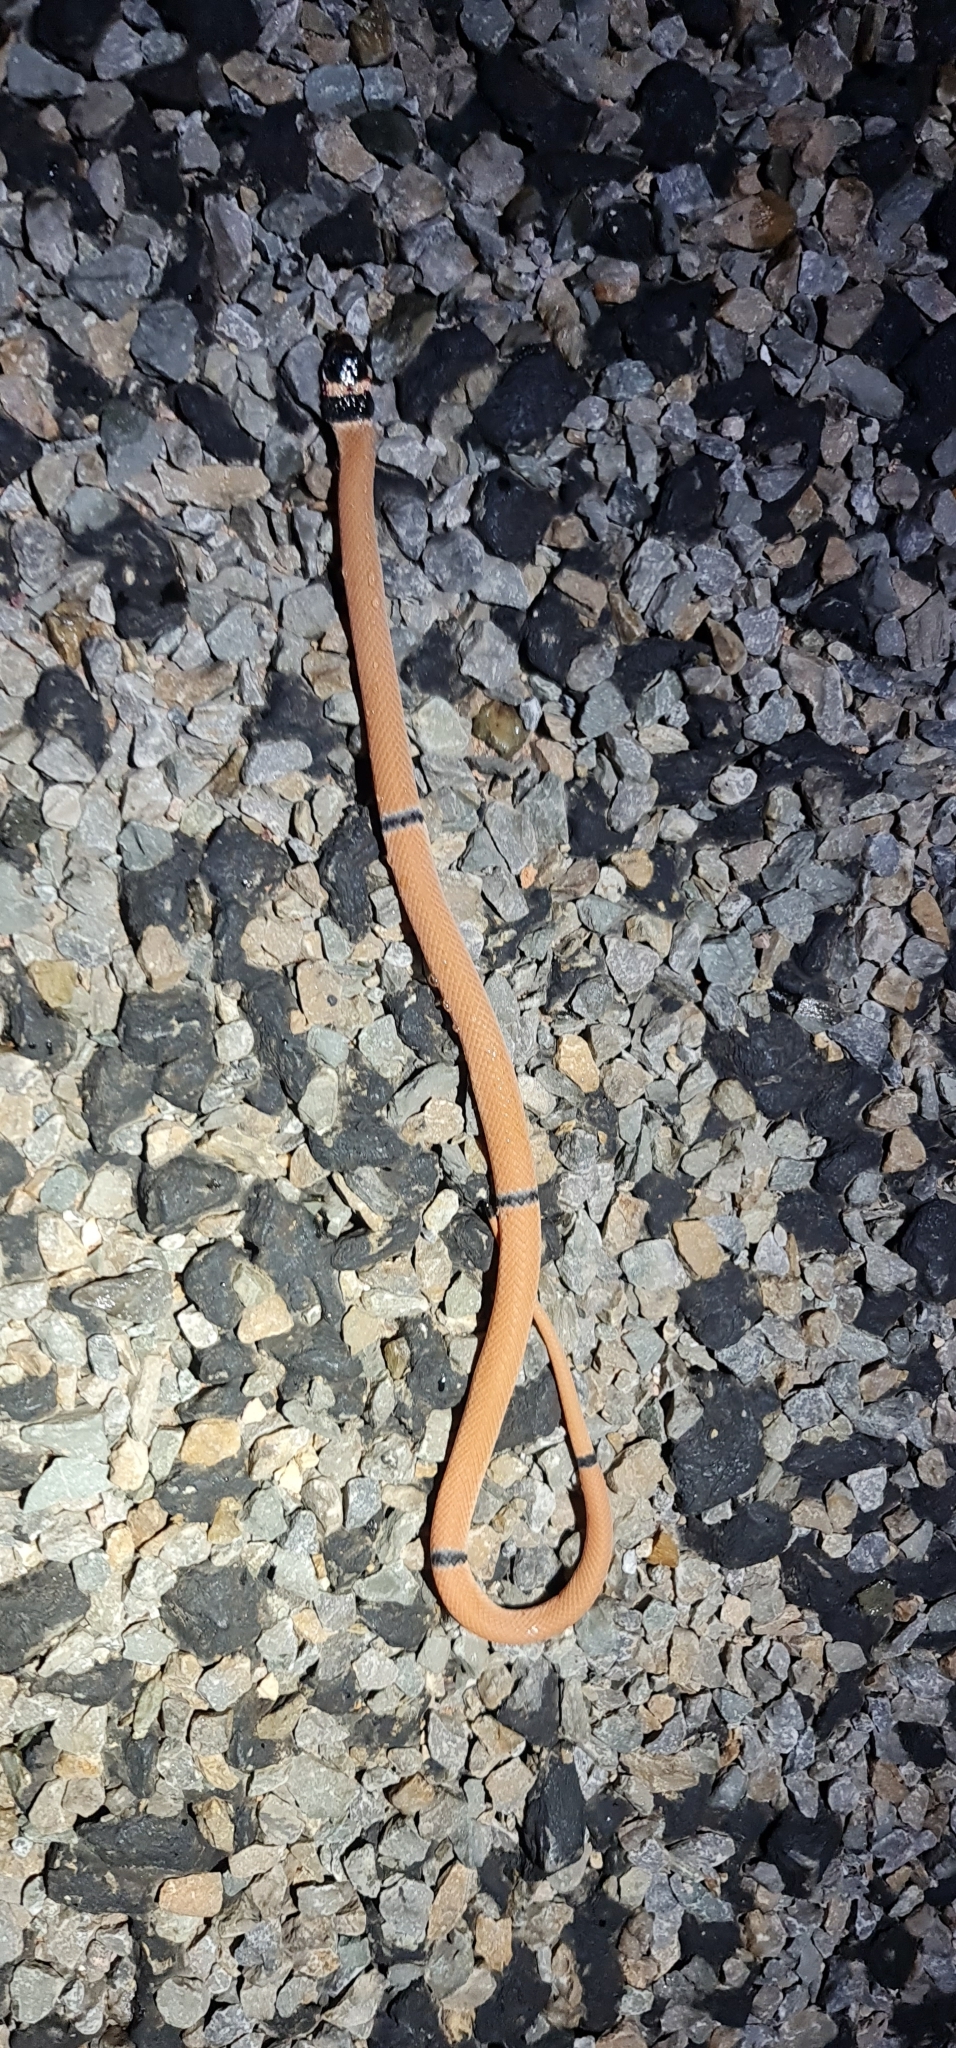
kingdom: Animalia
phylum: Chordata
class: Squamata
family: Elapidae
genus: Pseudonaja
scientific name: Pseudonaja modesta
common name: Ringed brown snake
